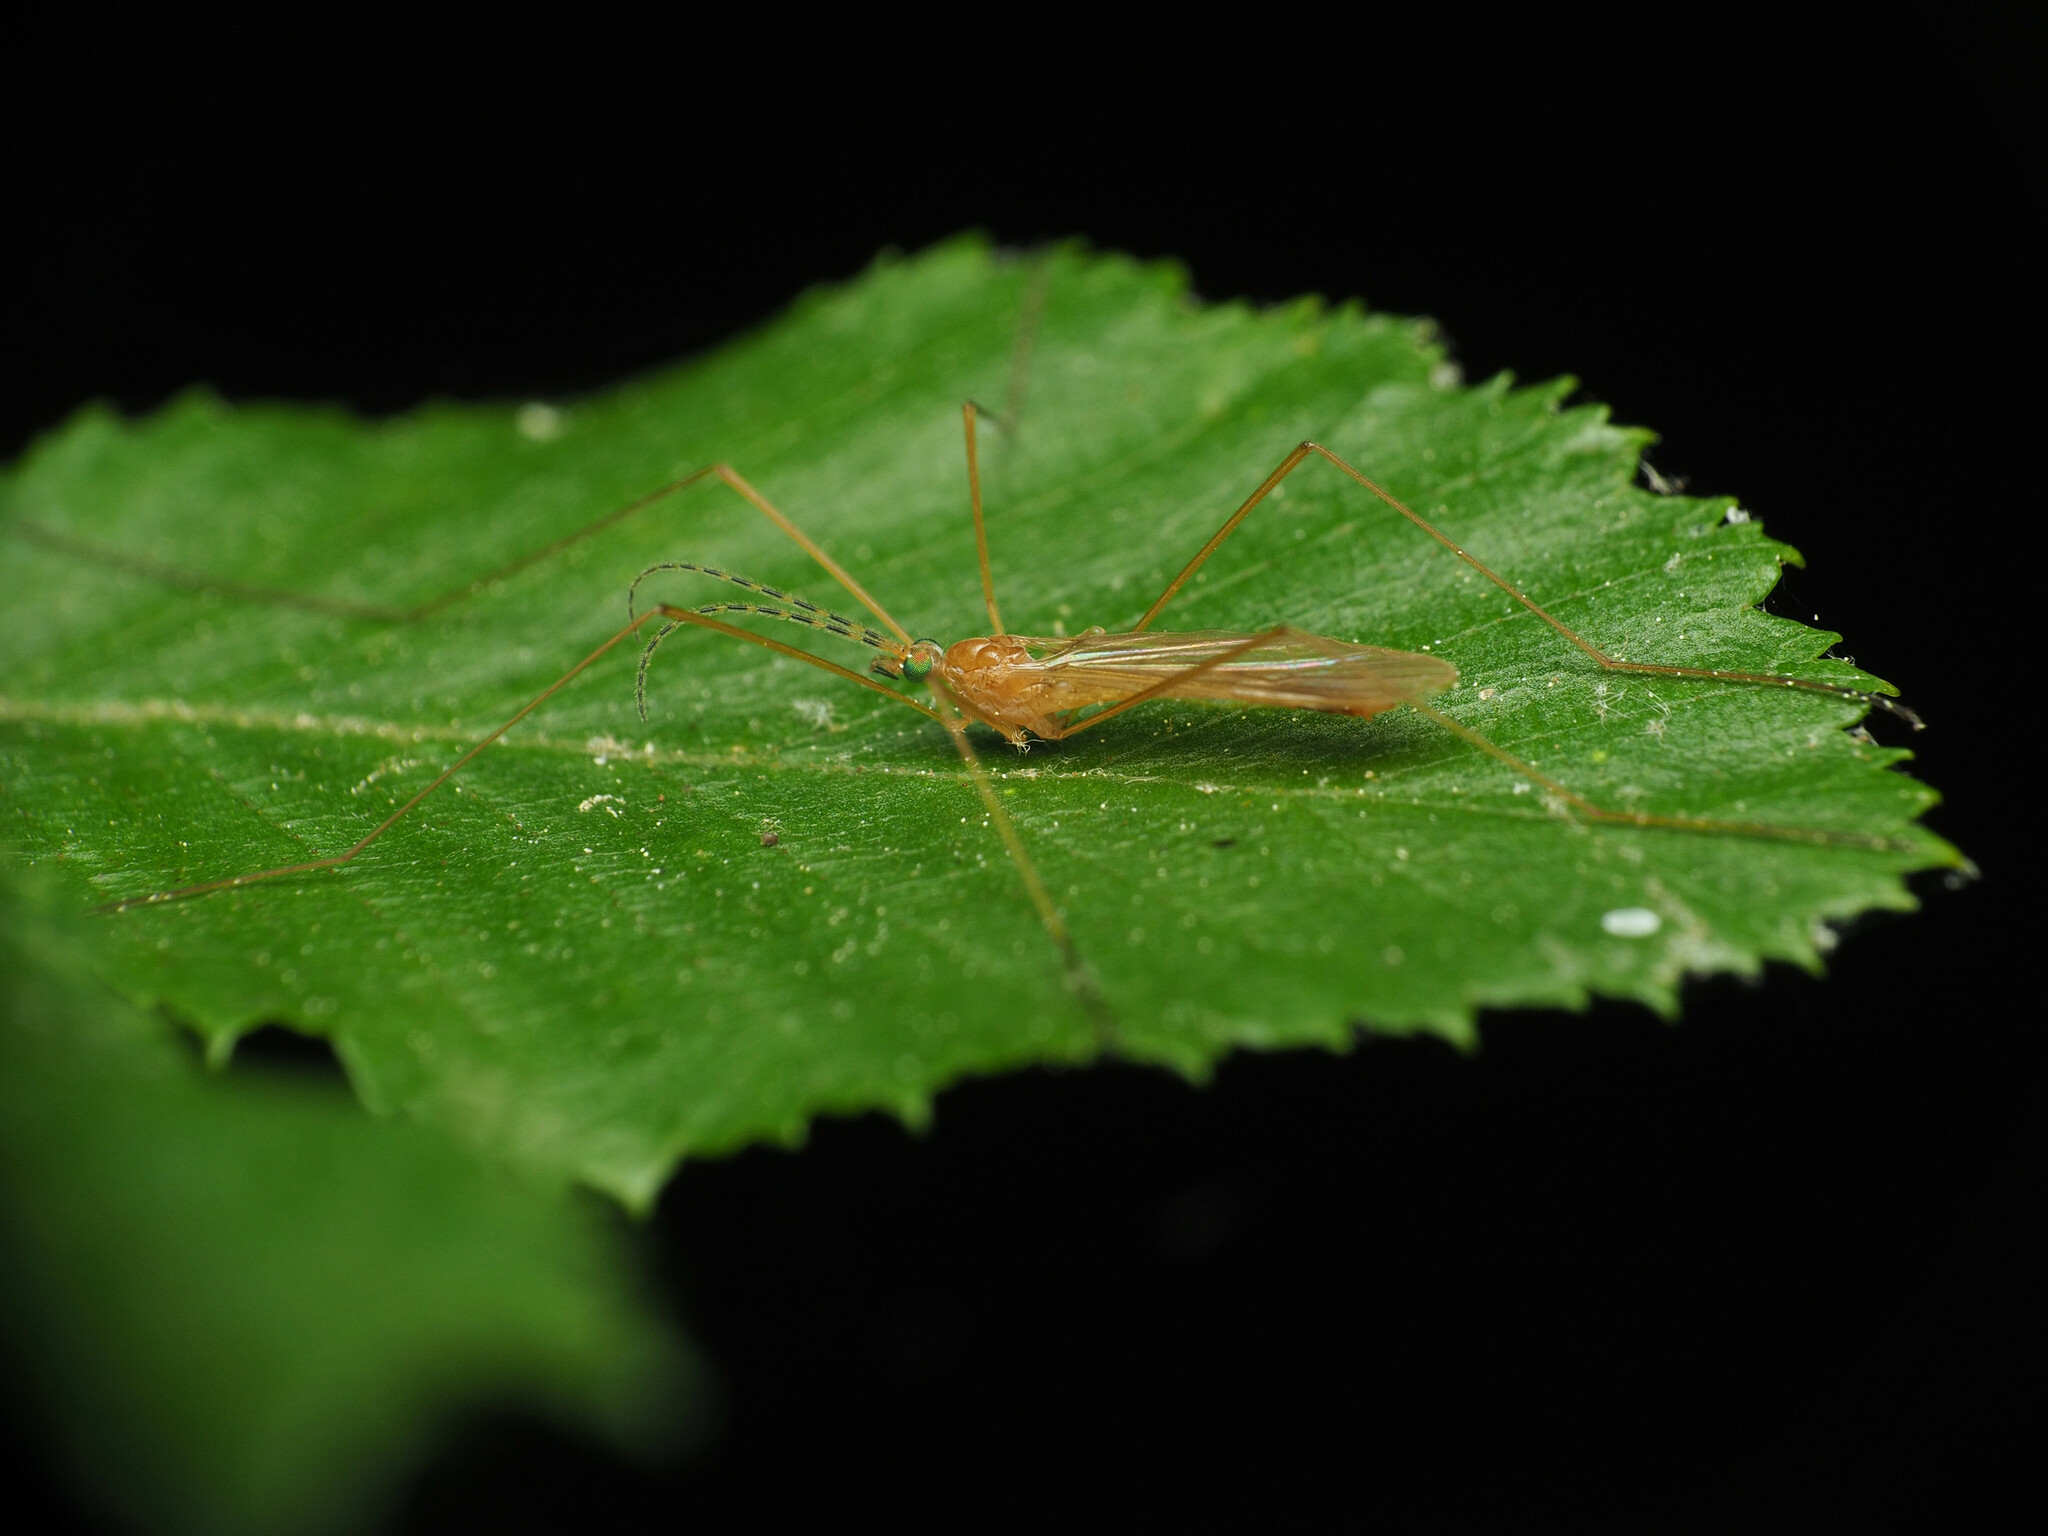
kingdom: Animalia
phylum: Arthropoda
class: Insecta
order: Diptera
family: Limoniidae
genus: Atarba
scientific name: Atarba picticornis
